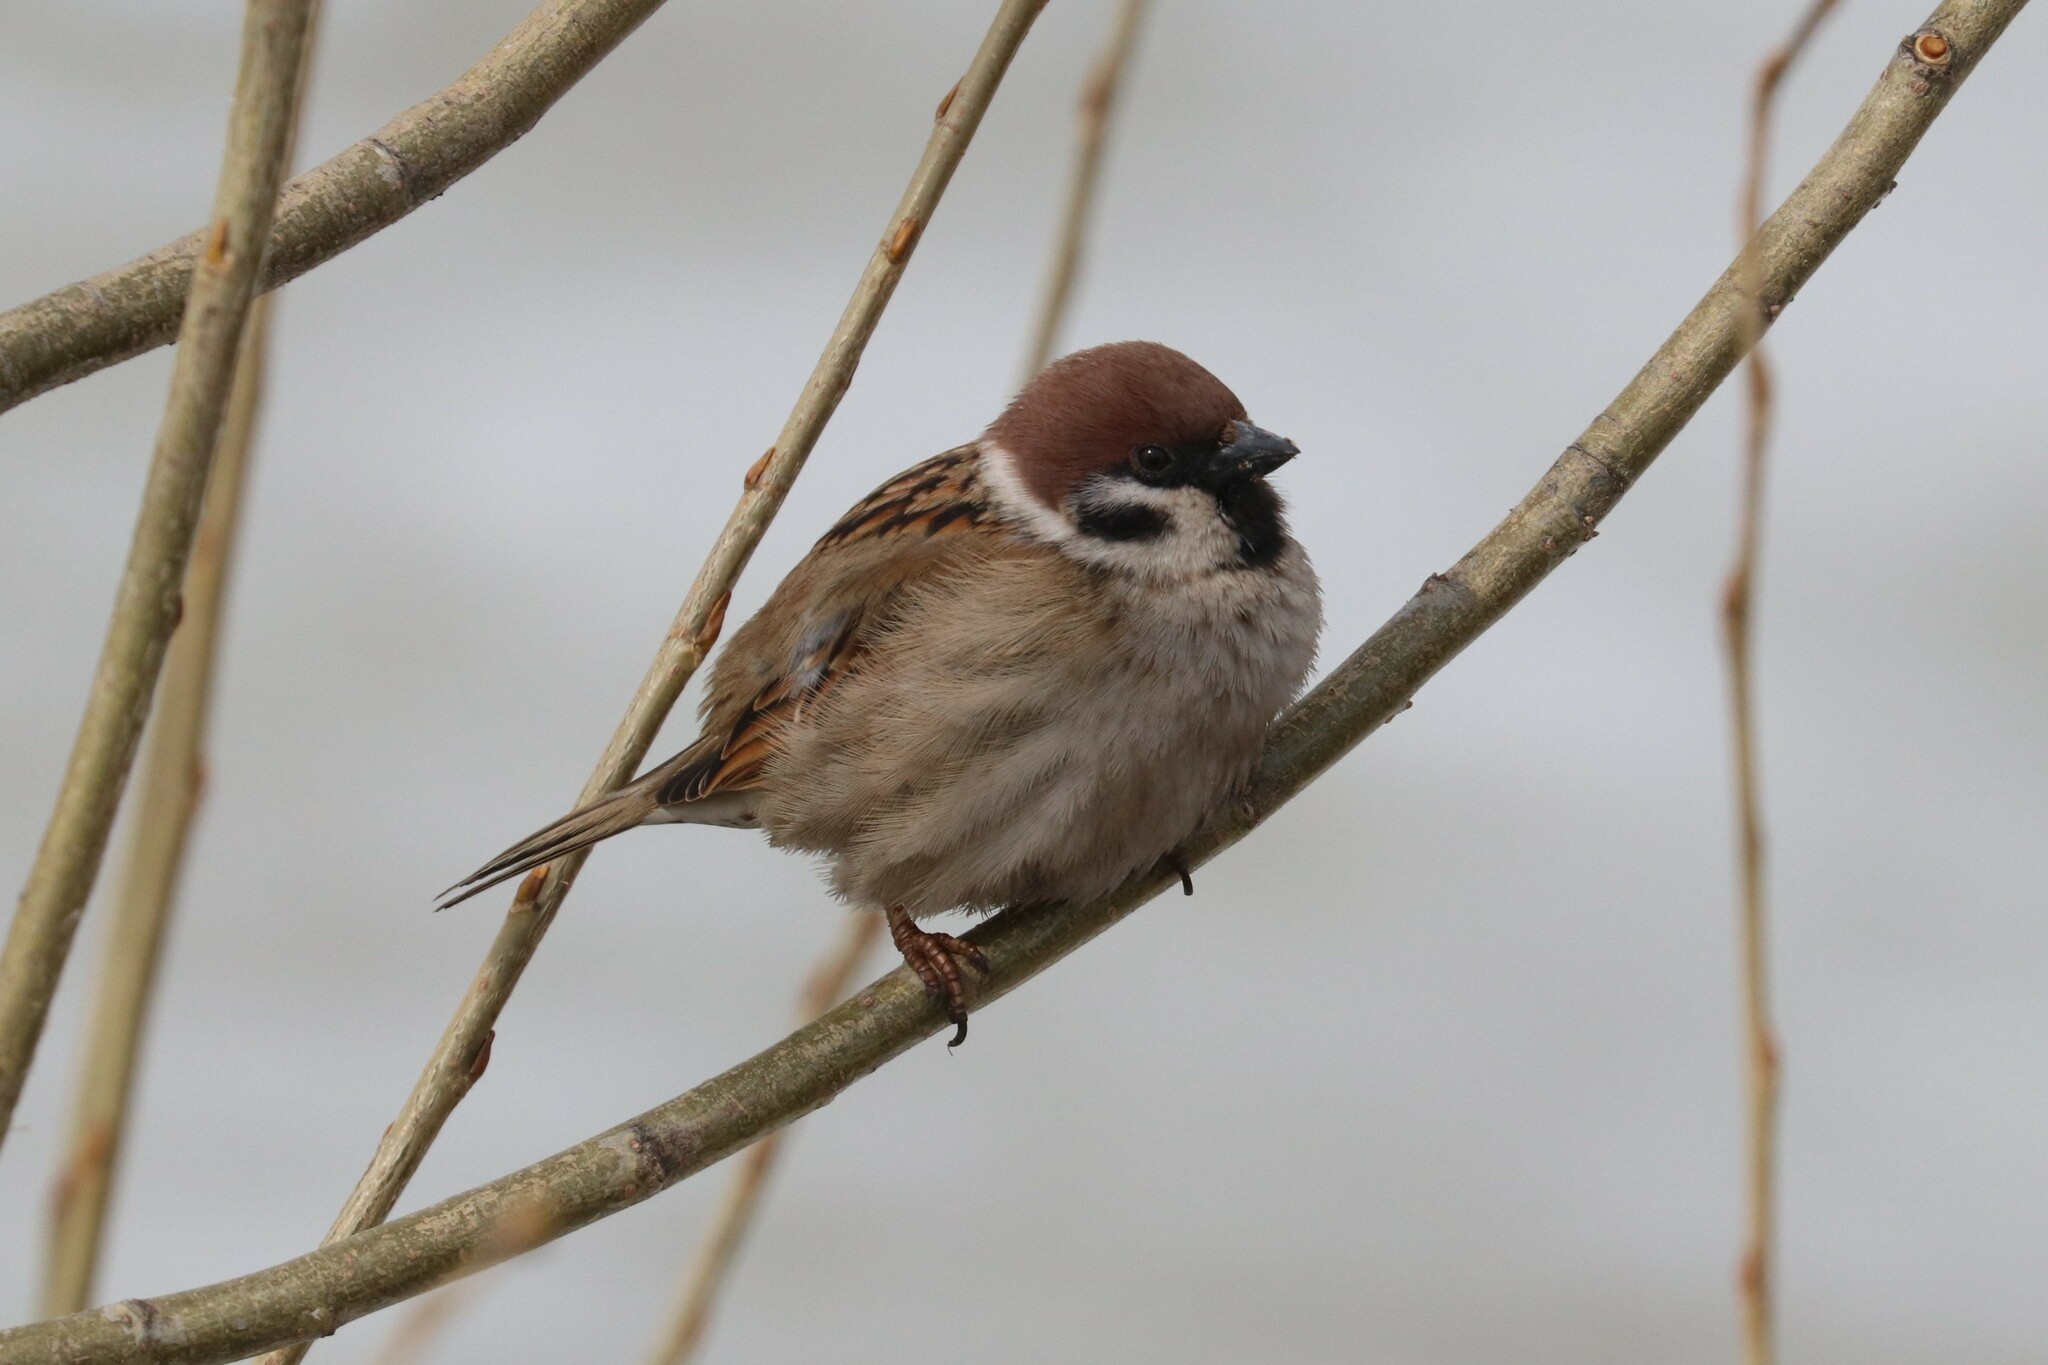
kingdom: Animalia
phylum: Chordata
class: Aves
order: Passeriformes
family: Passeridae
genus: Passer
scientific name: Passer montanus
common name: Eurasian tree sparrow
